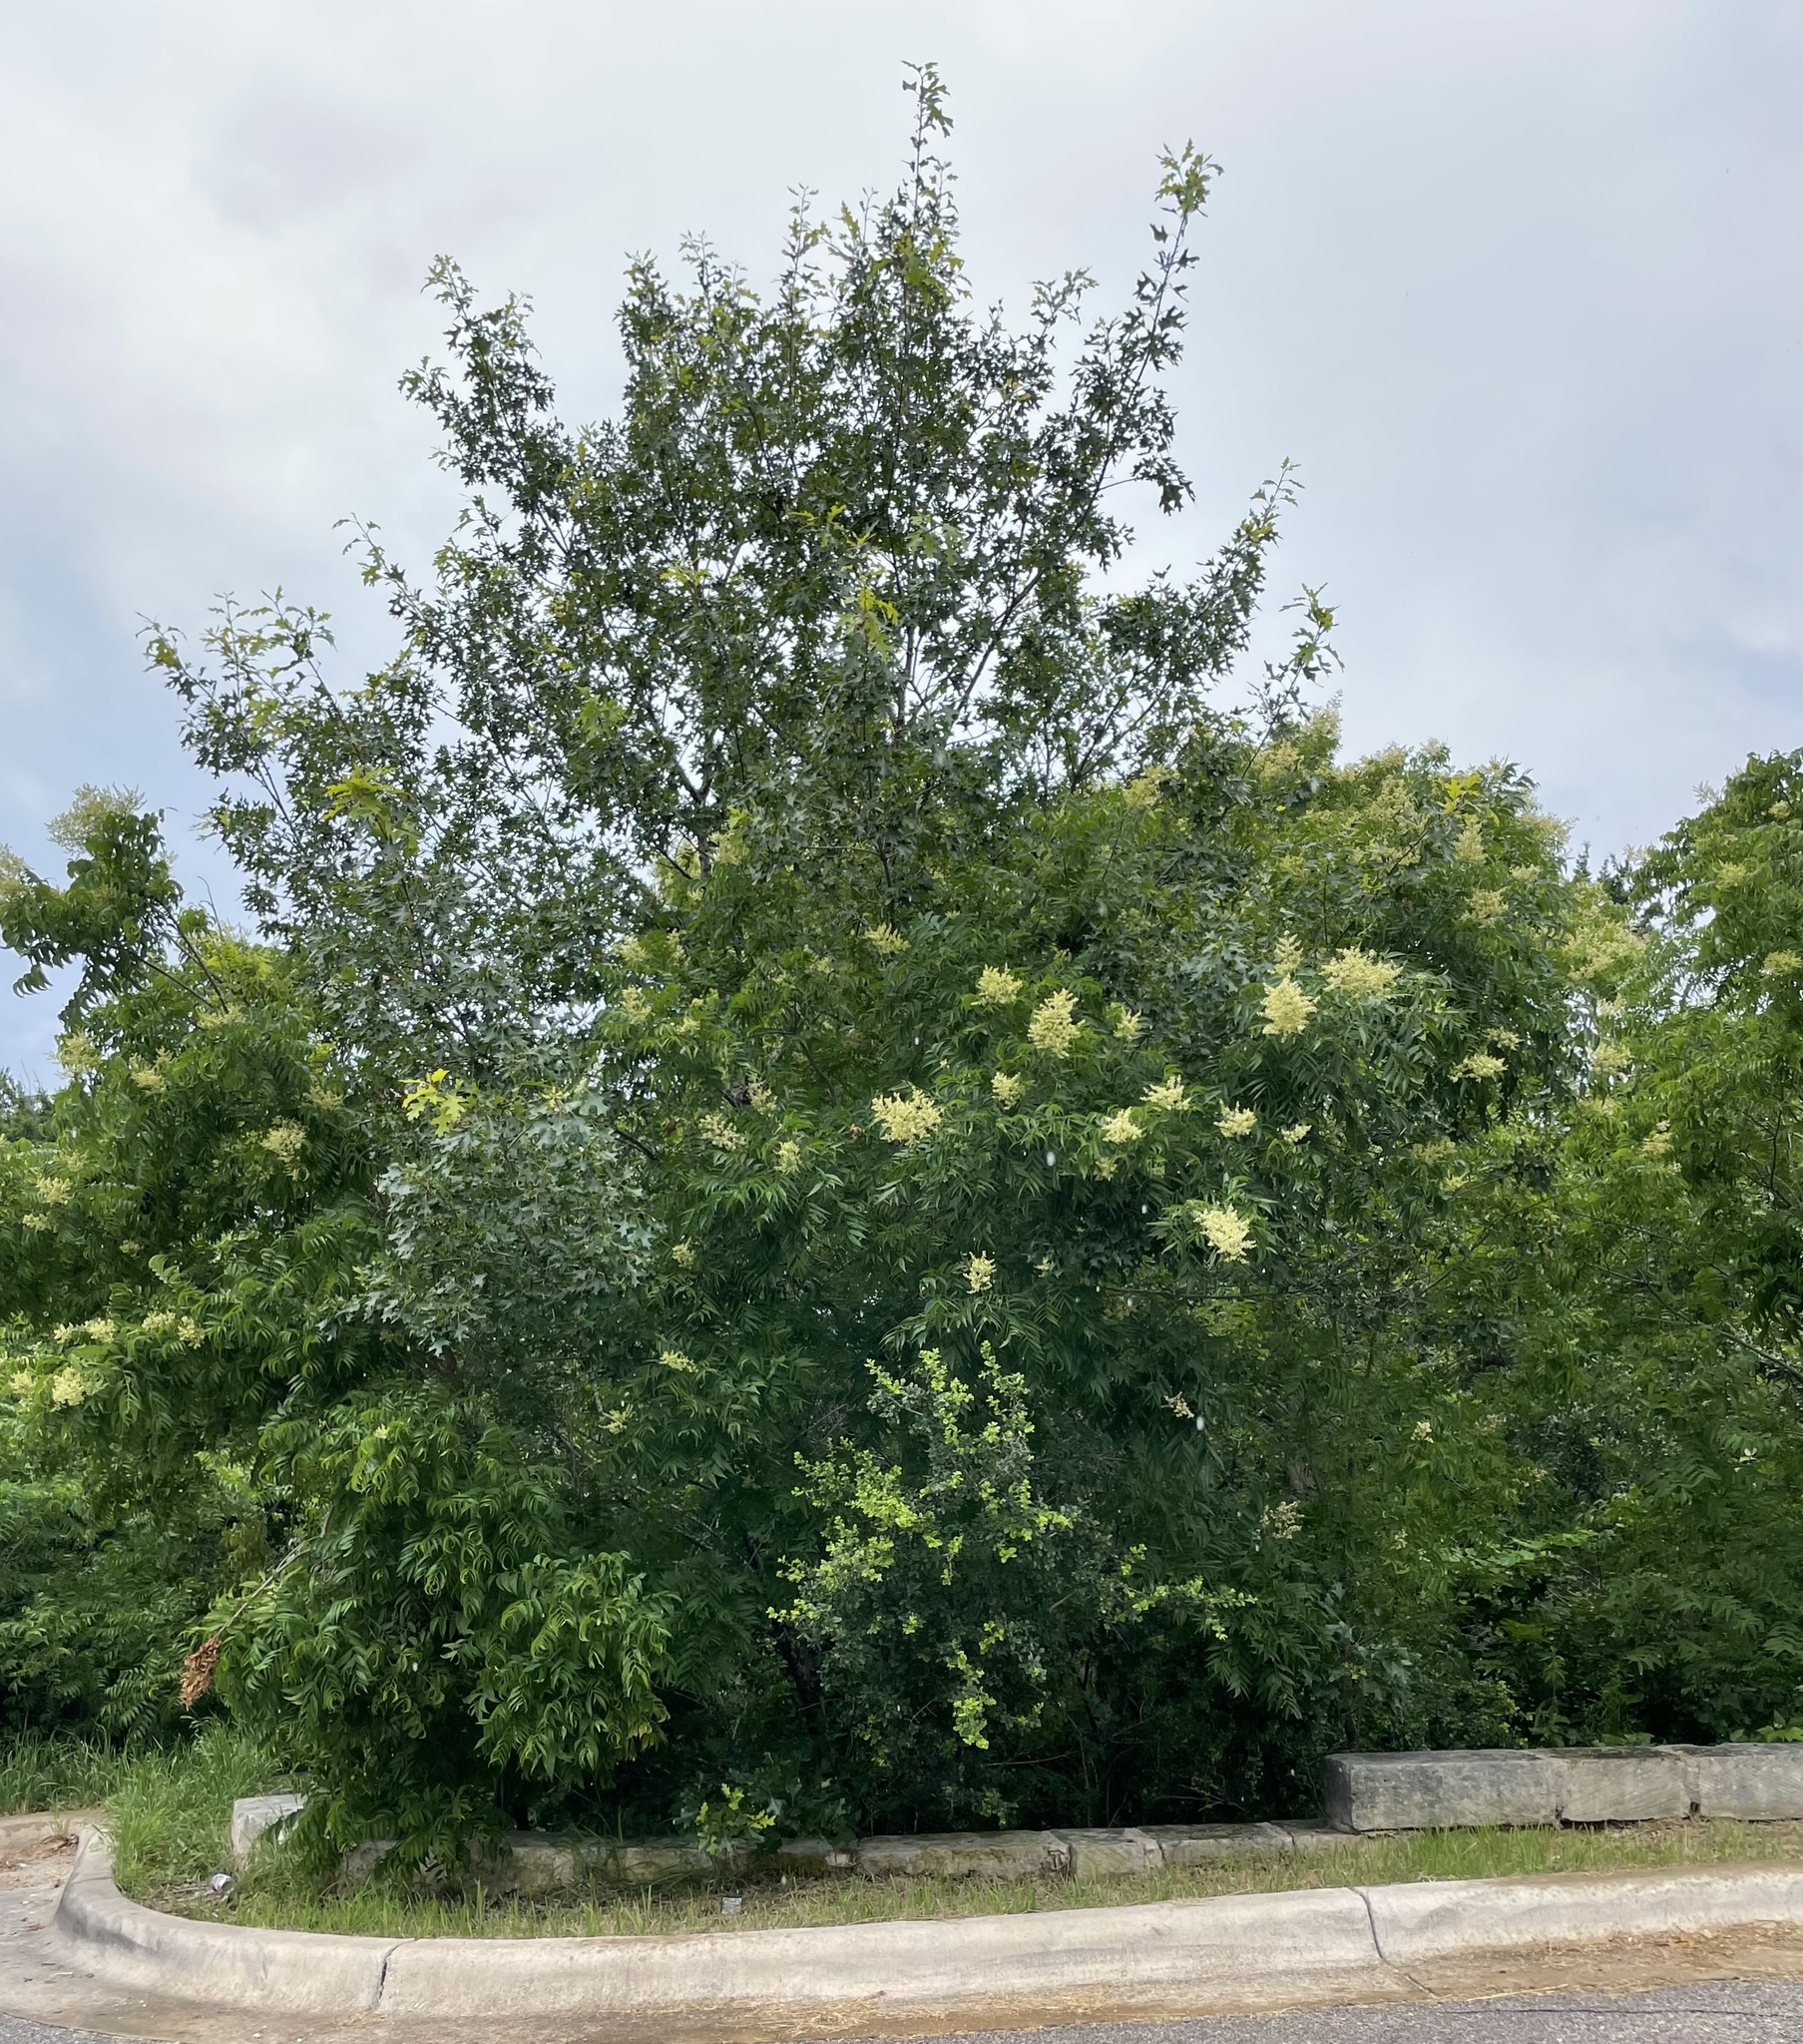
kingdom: Plantae
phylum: Tracheophyta
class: Magnoliopsida
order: Sapindales
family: Sapindaceae
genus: Sapindus
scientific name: Sapindus drummondii
